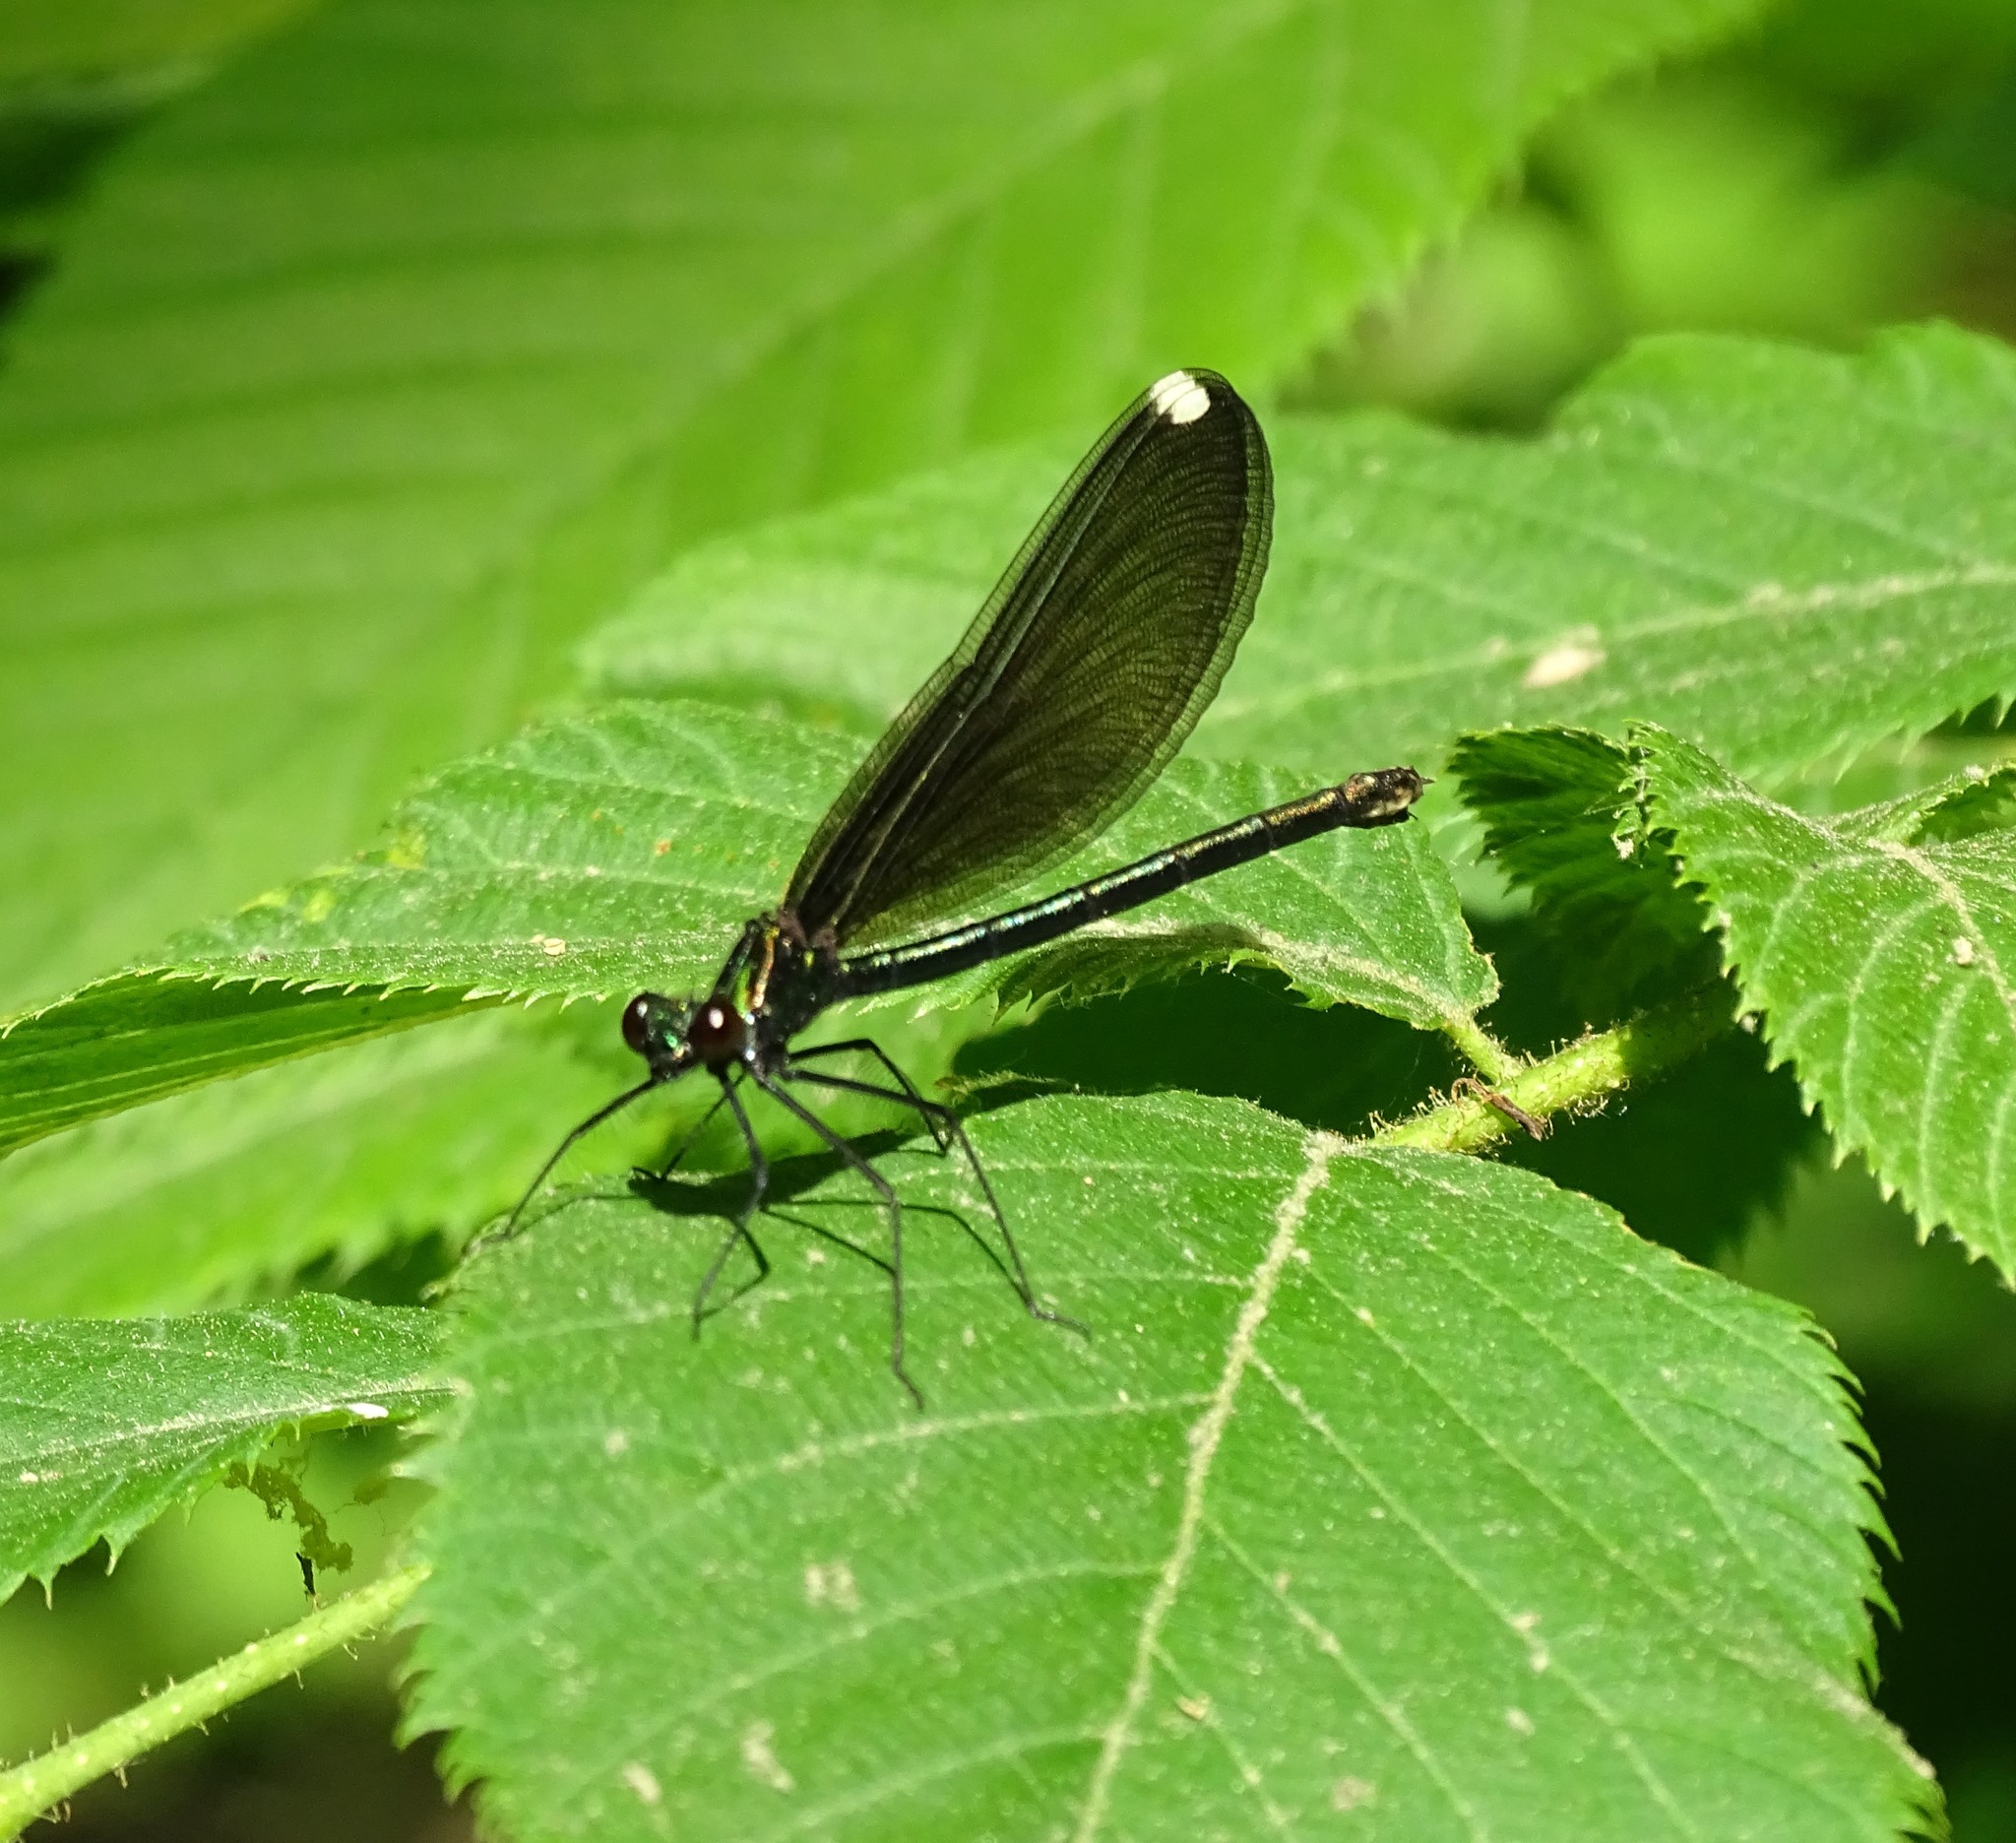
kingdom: Animalia
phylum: Arthropoda
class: Insecta
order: Odonata
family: Calopterygidae
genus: Calopteryx
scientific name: Calopteryx maculata
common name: Ebony jewelwing
